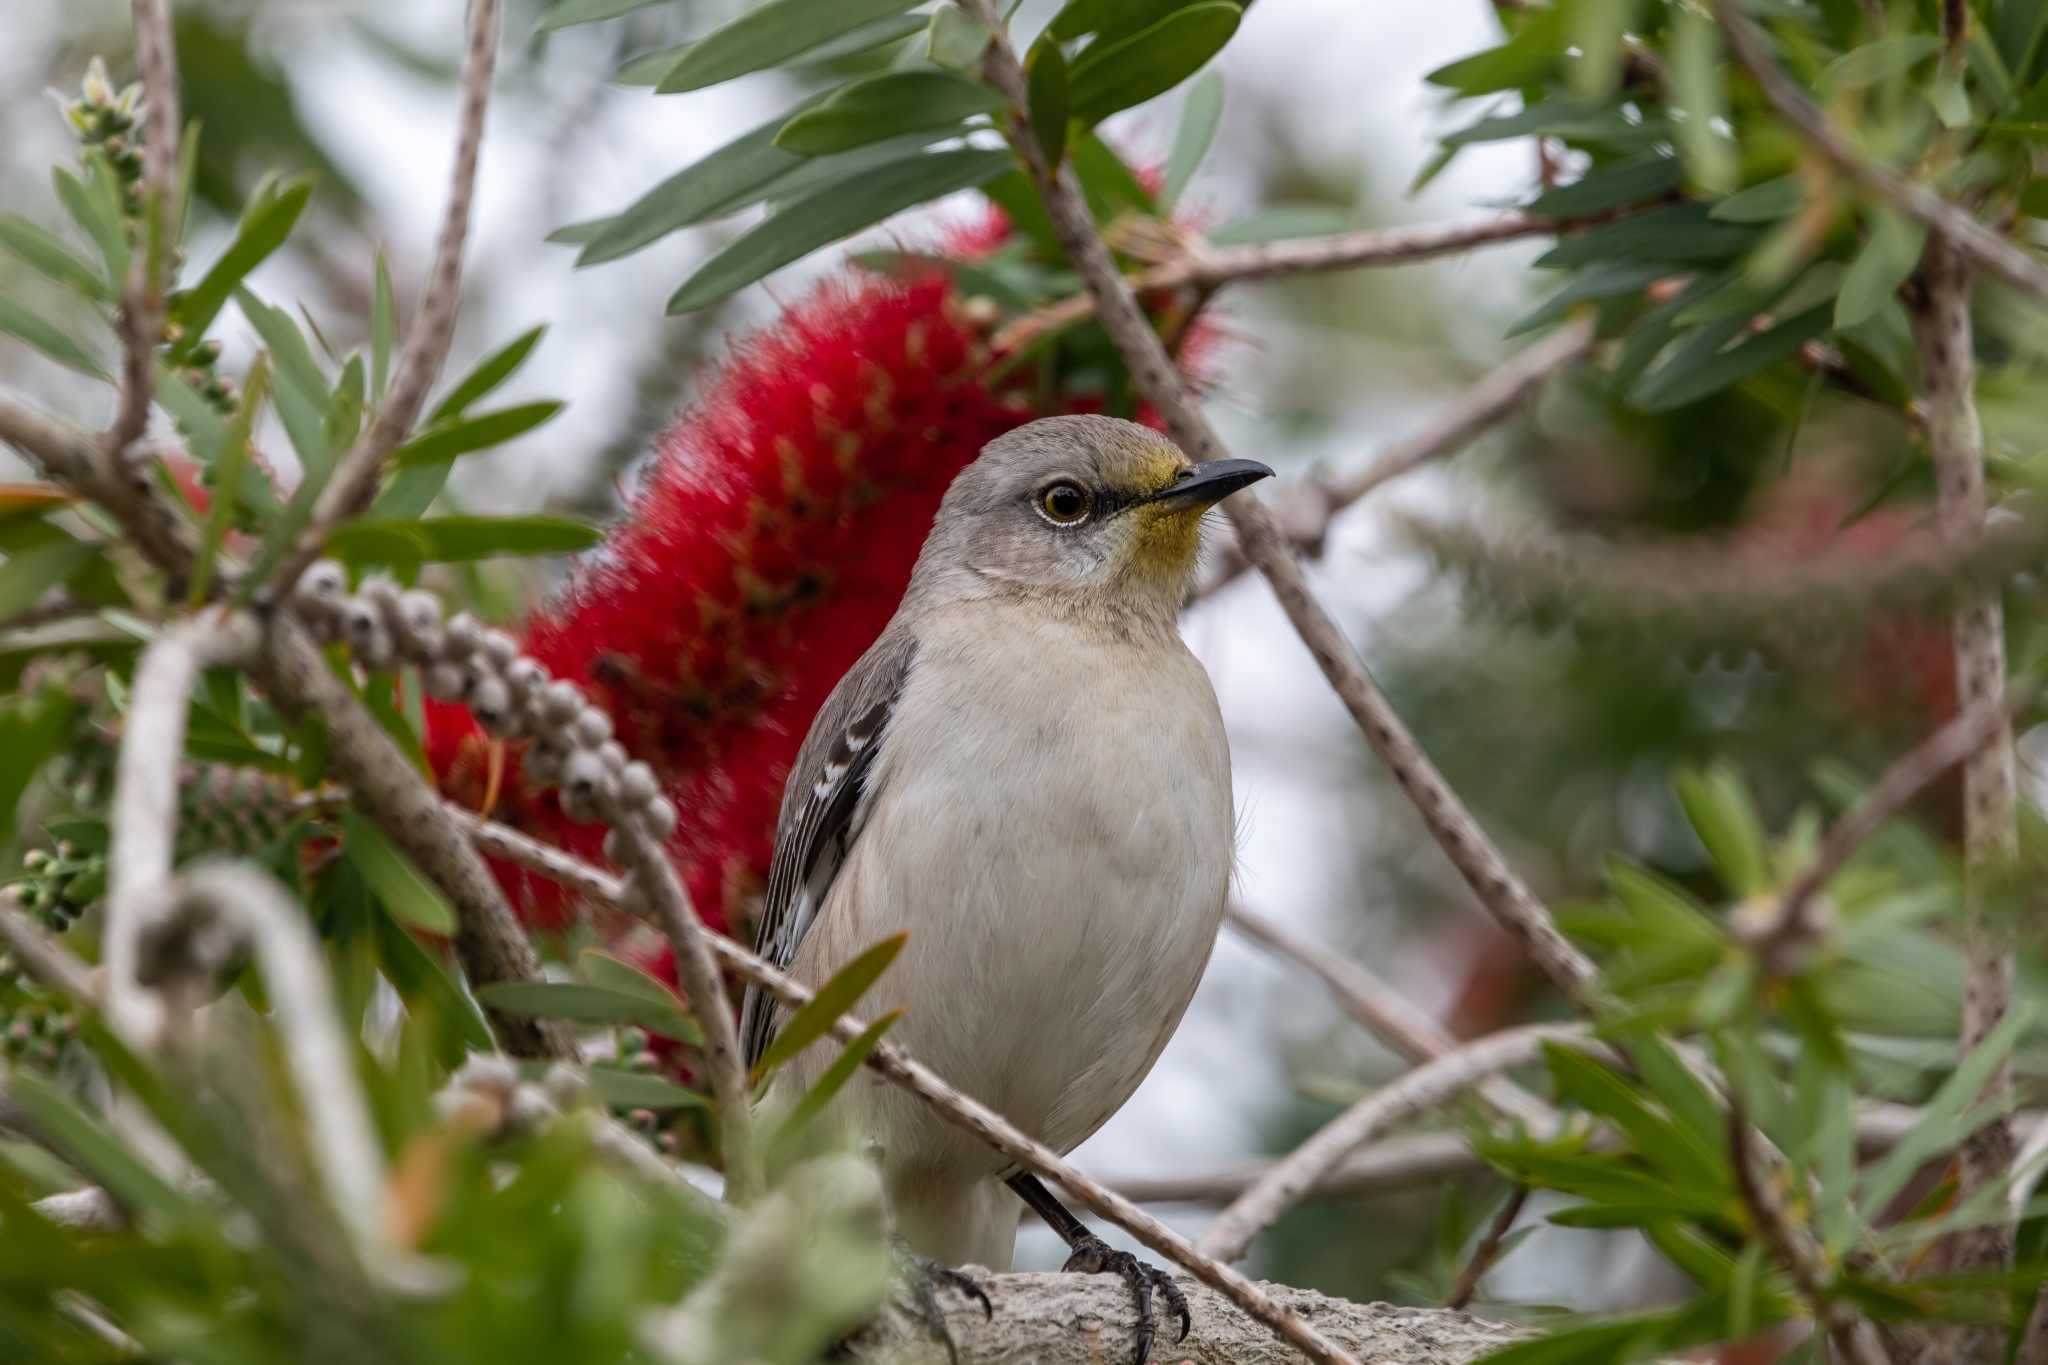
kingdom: Animalia
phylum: Chordata
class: Aves
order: Passeriformes
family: Mimidae
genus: Mimus
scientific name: Mimus polyglottos
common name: Northern mockingbird
